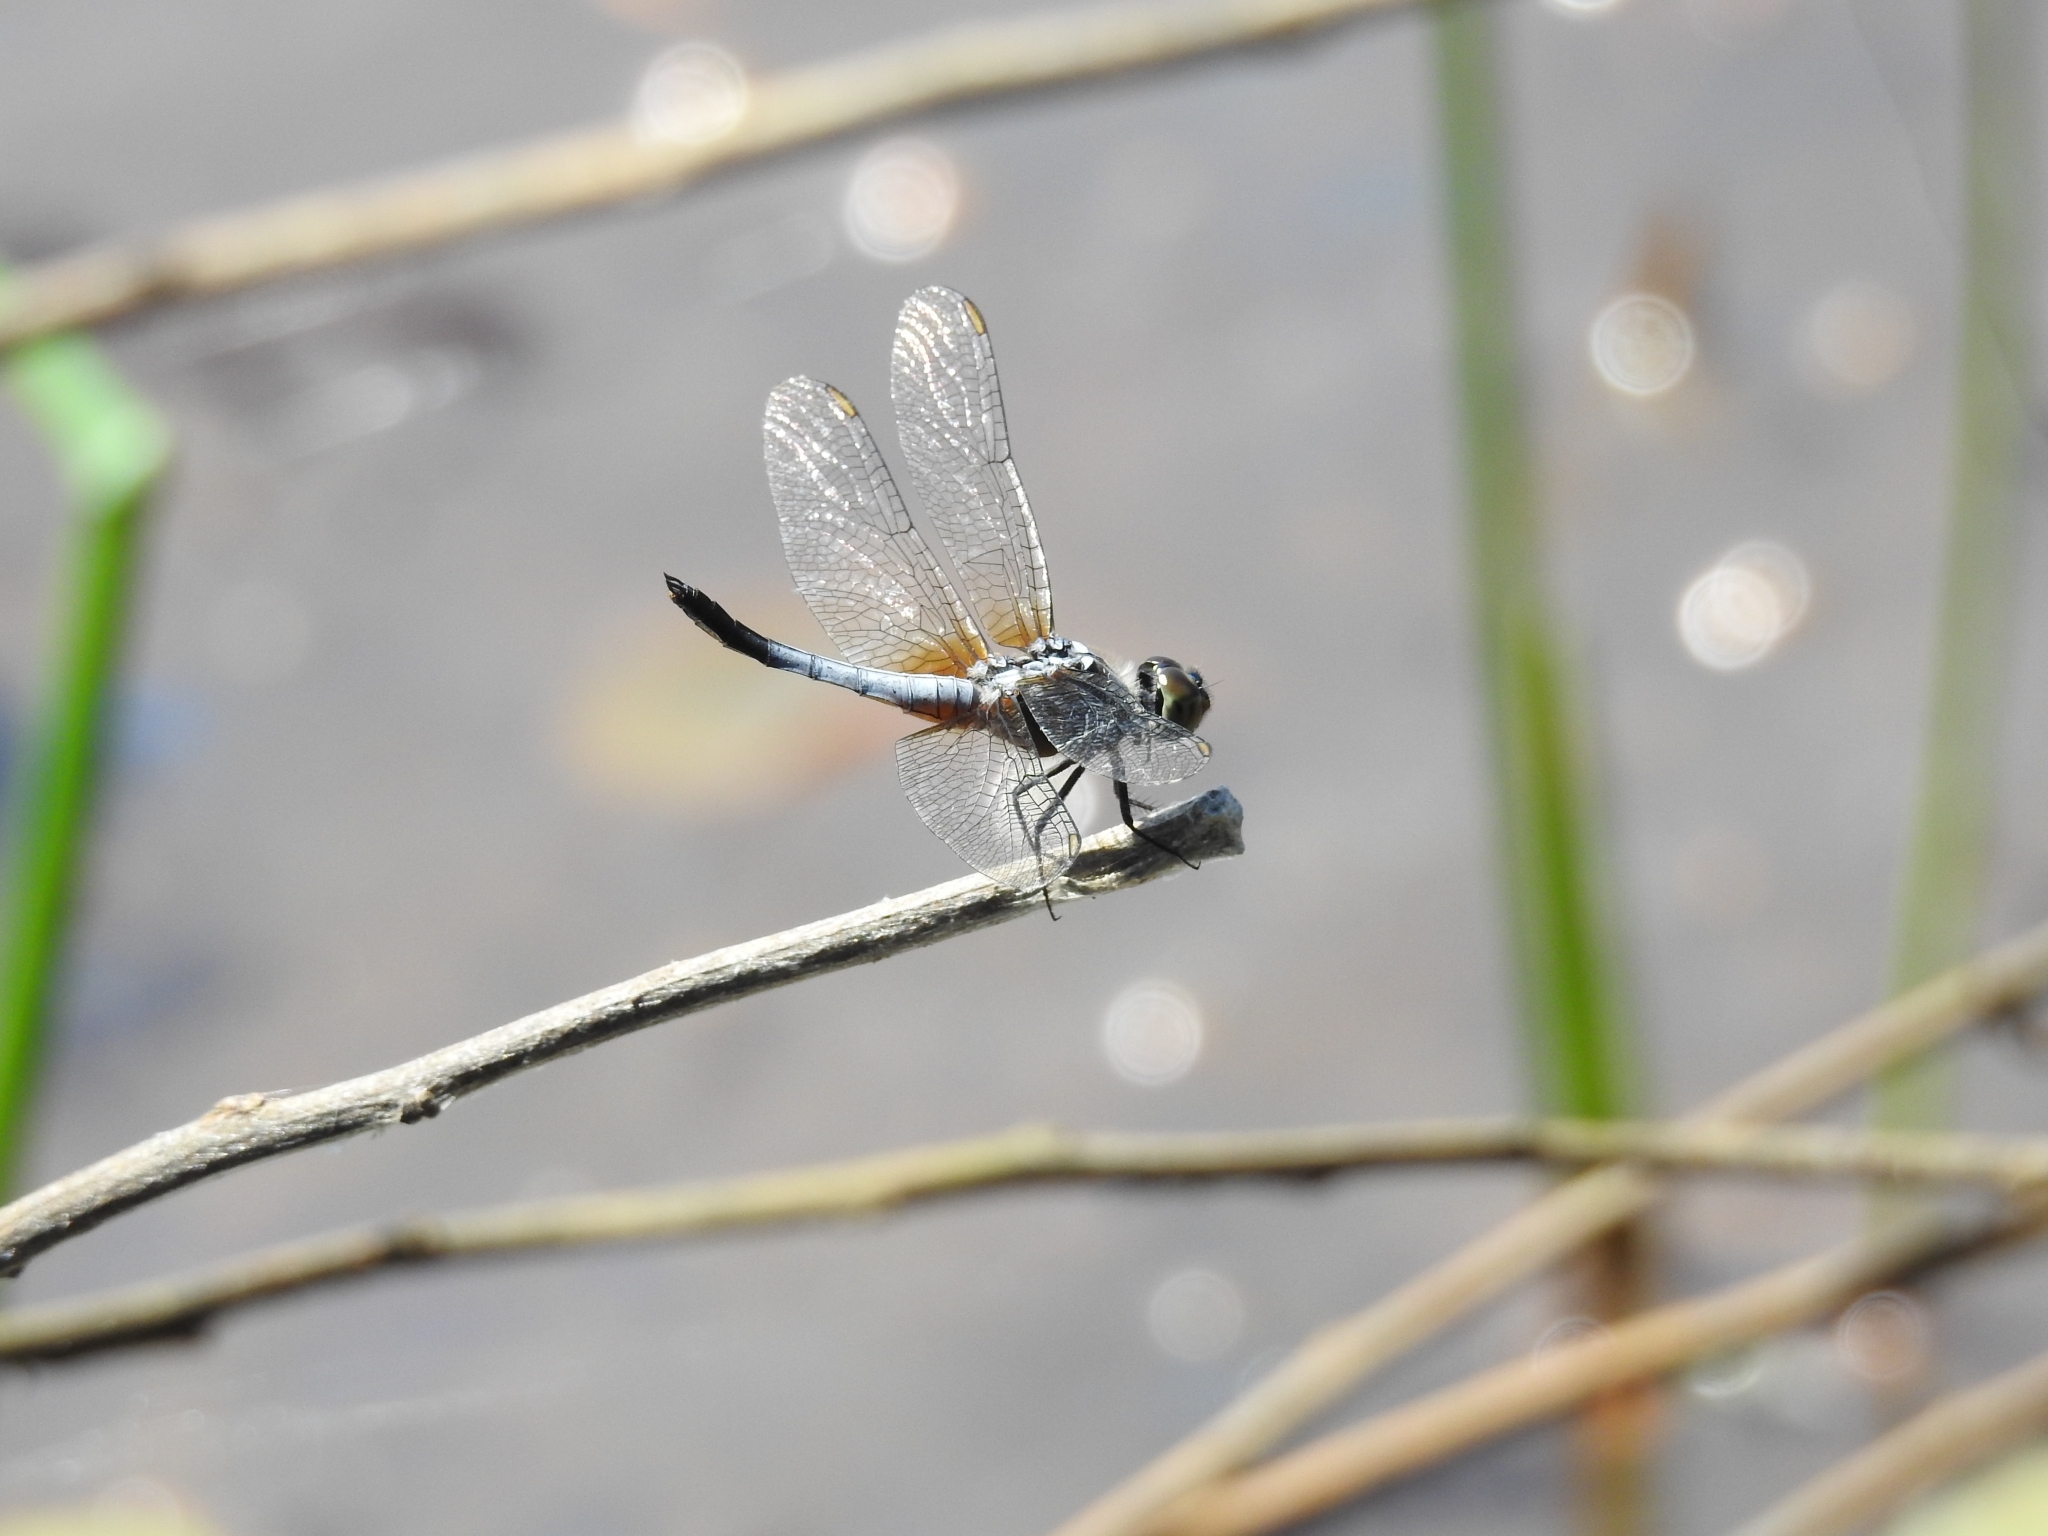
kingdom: Animalia
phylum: Arthropoda
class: Insecta
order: Odonata
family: Libellulidae
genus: Brachydiplax
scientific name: Brachydiplax chalybea
